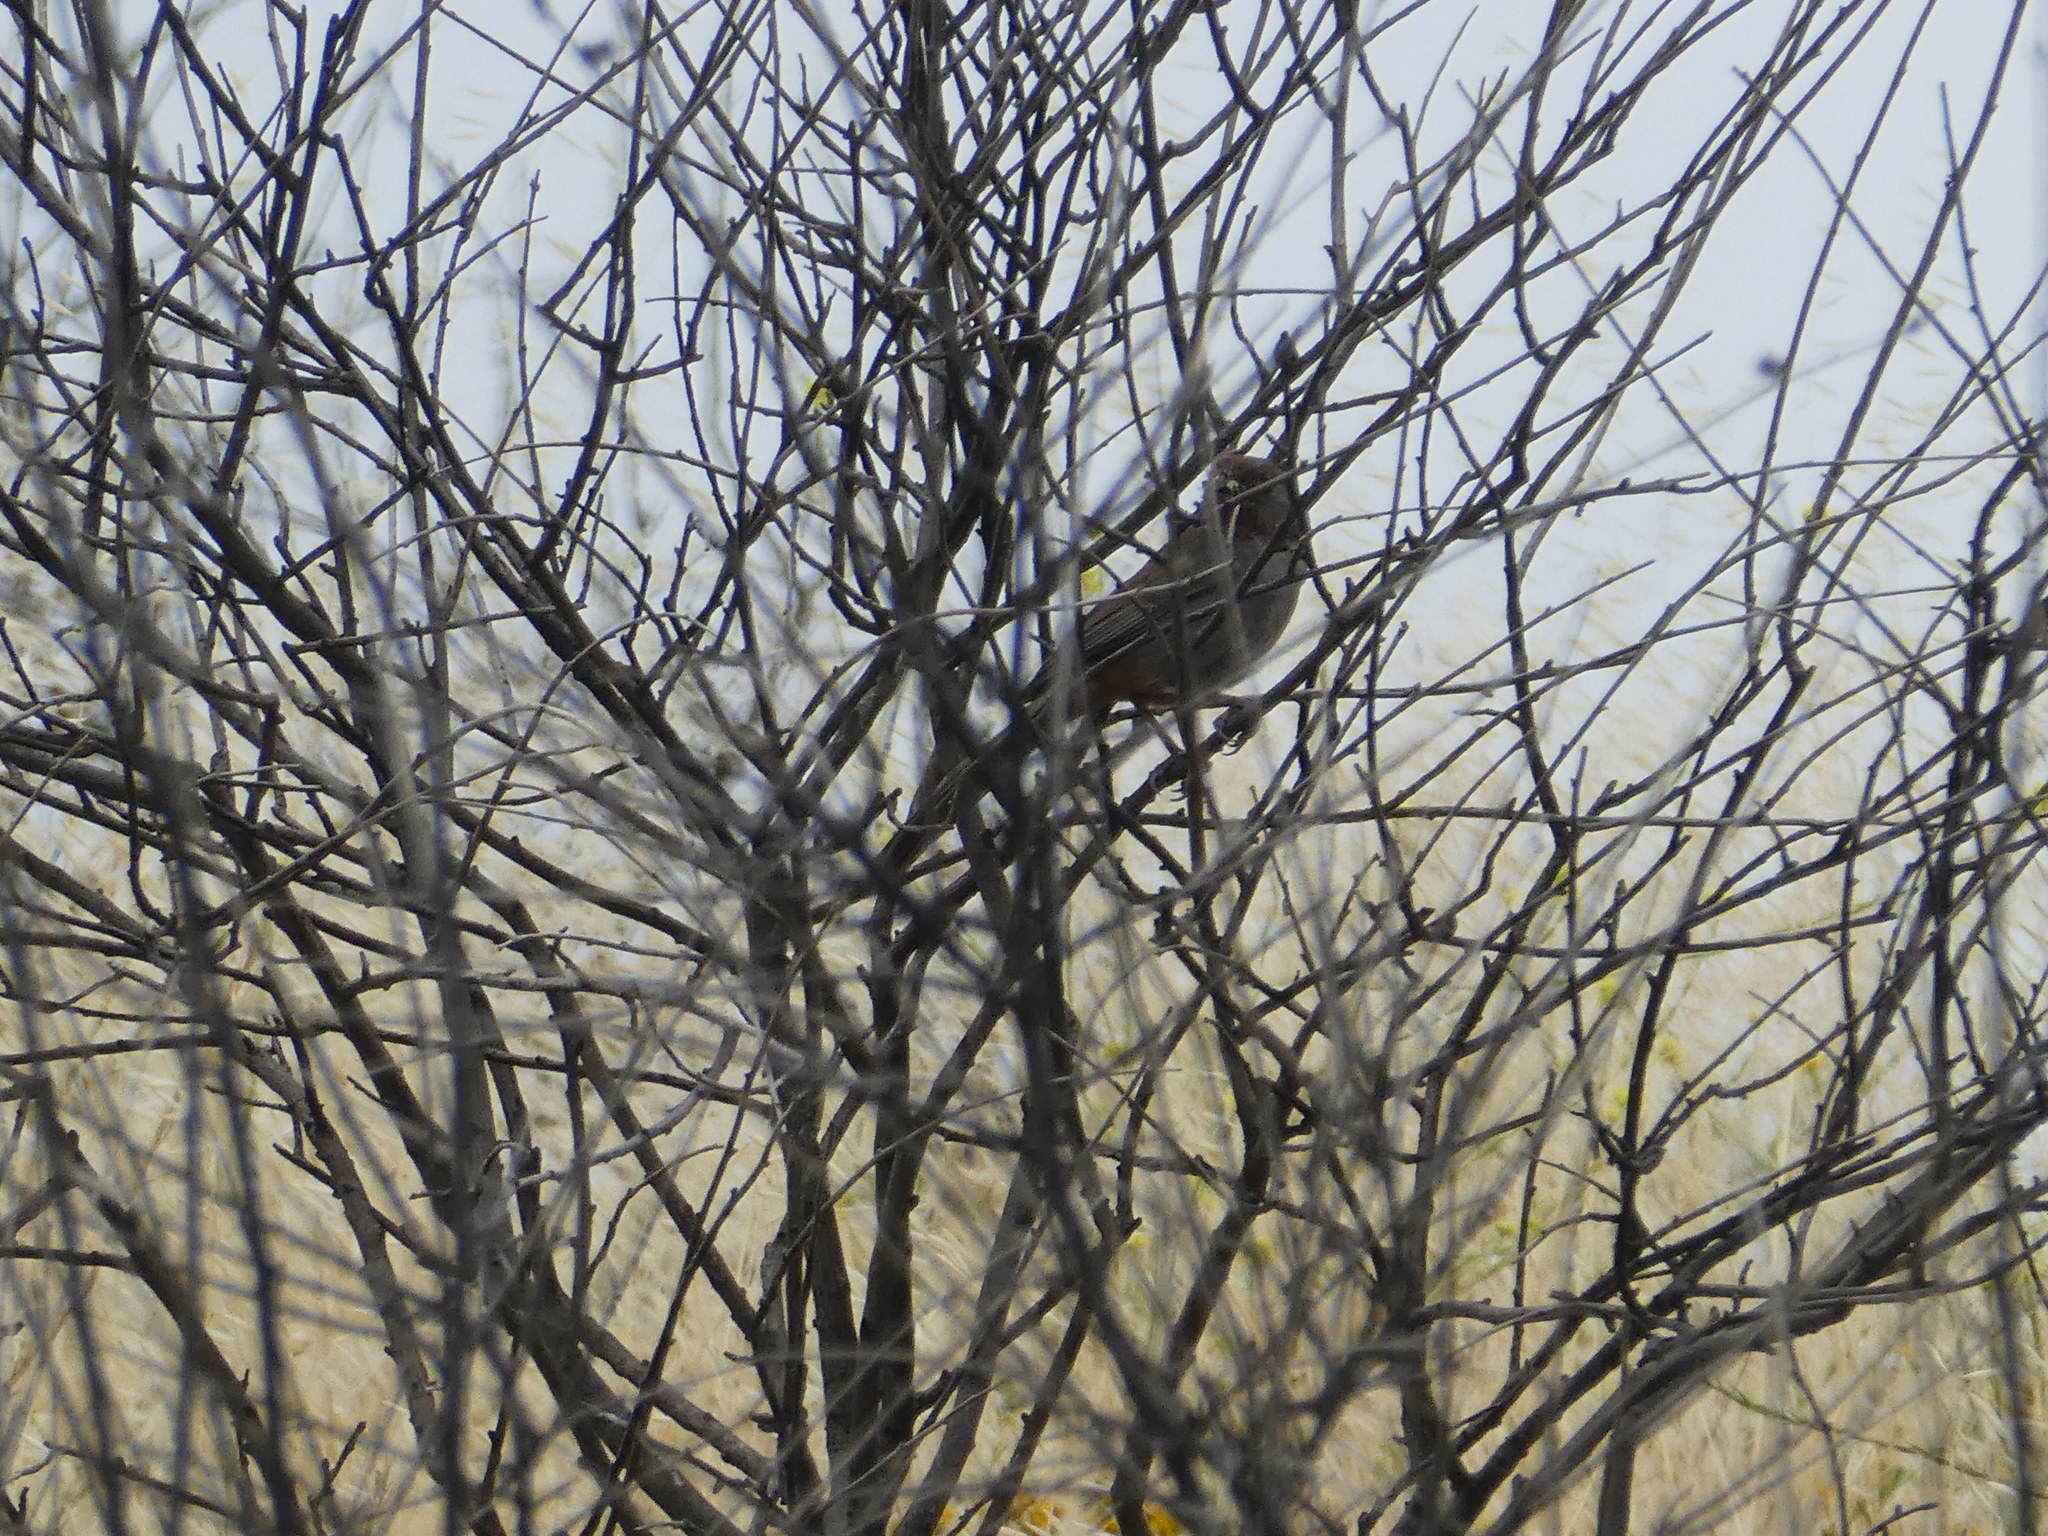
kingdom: Animalia
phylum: Chordata
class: Aves
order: Passeriformes
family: Passerellidae
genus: Melozone
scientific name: Melozone crissalis
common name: California towhee
